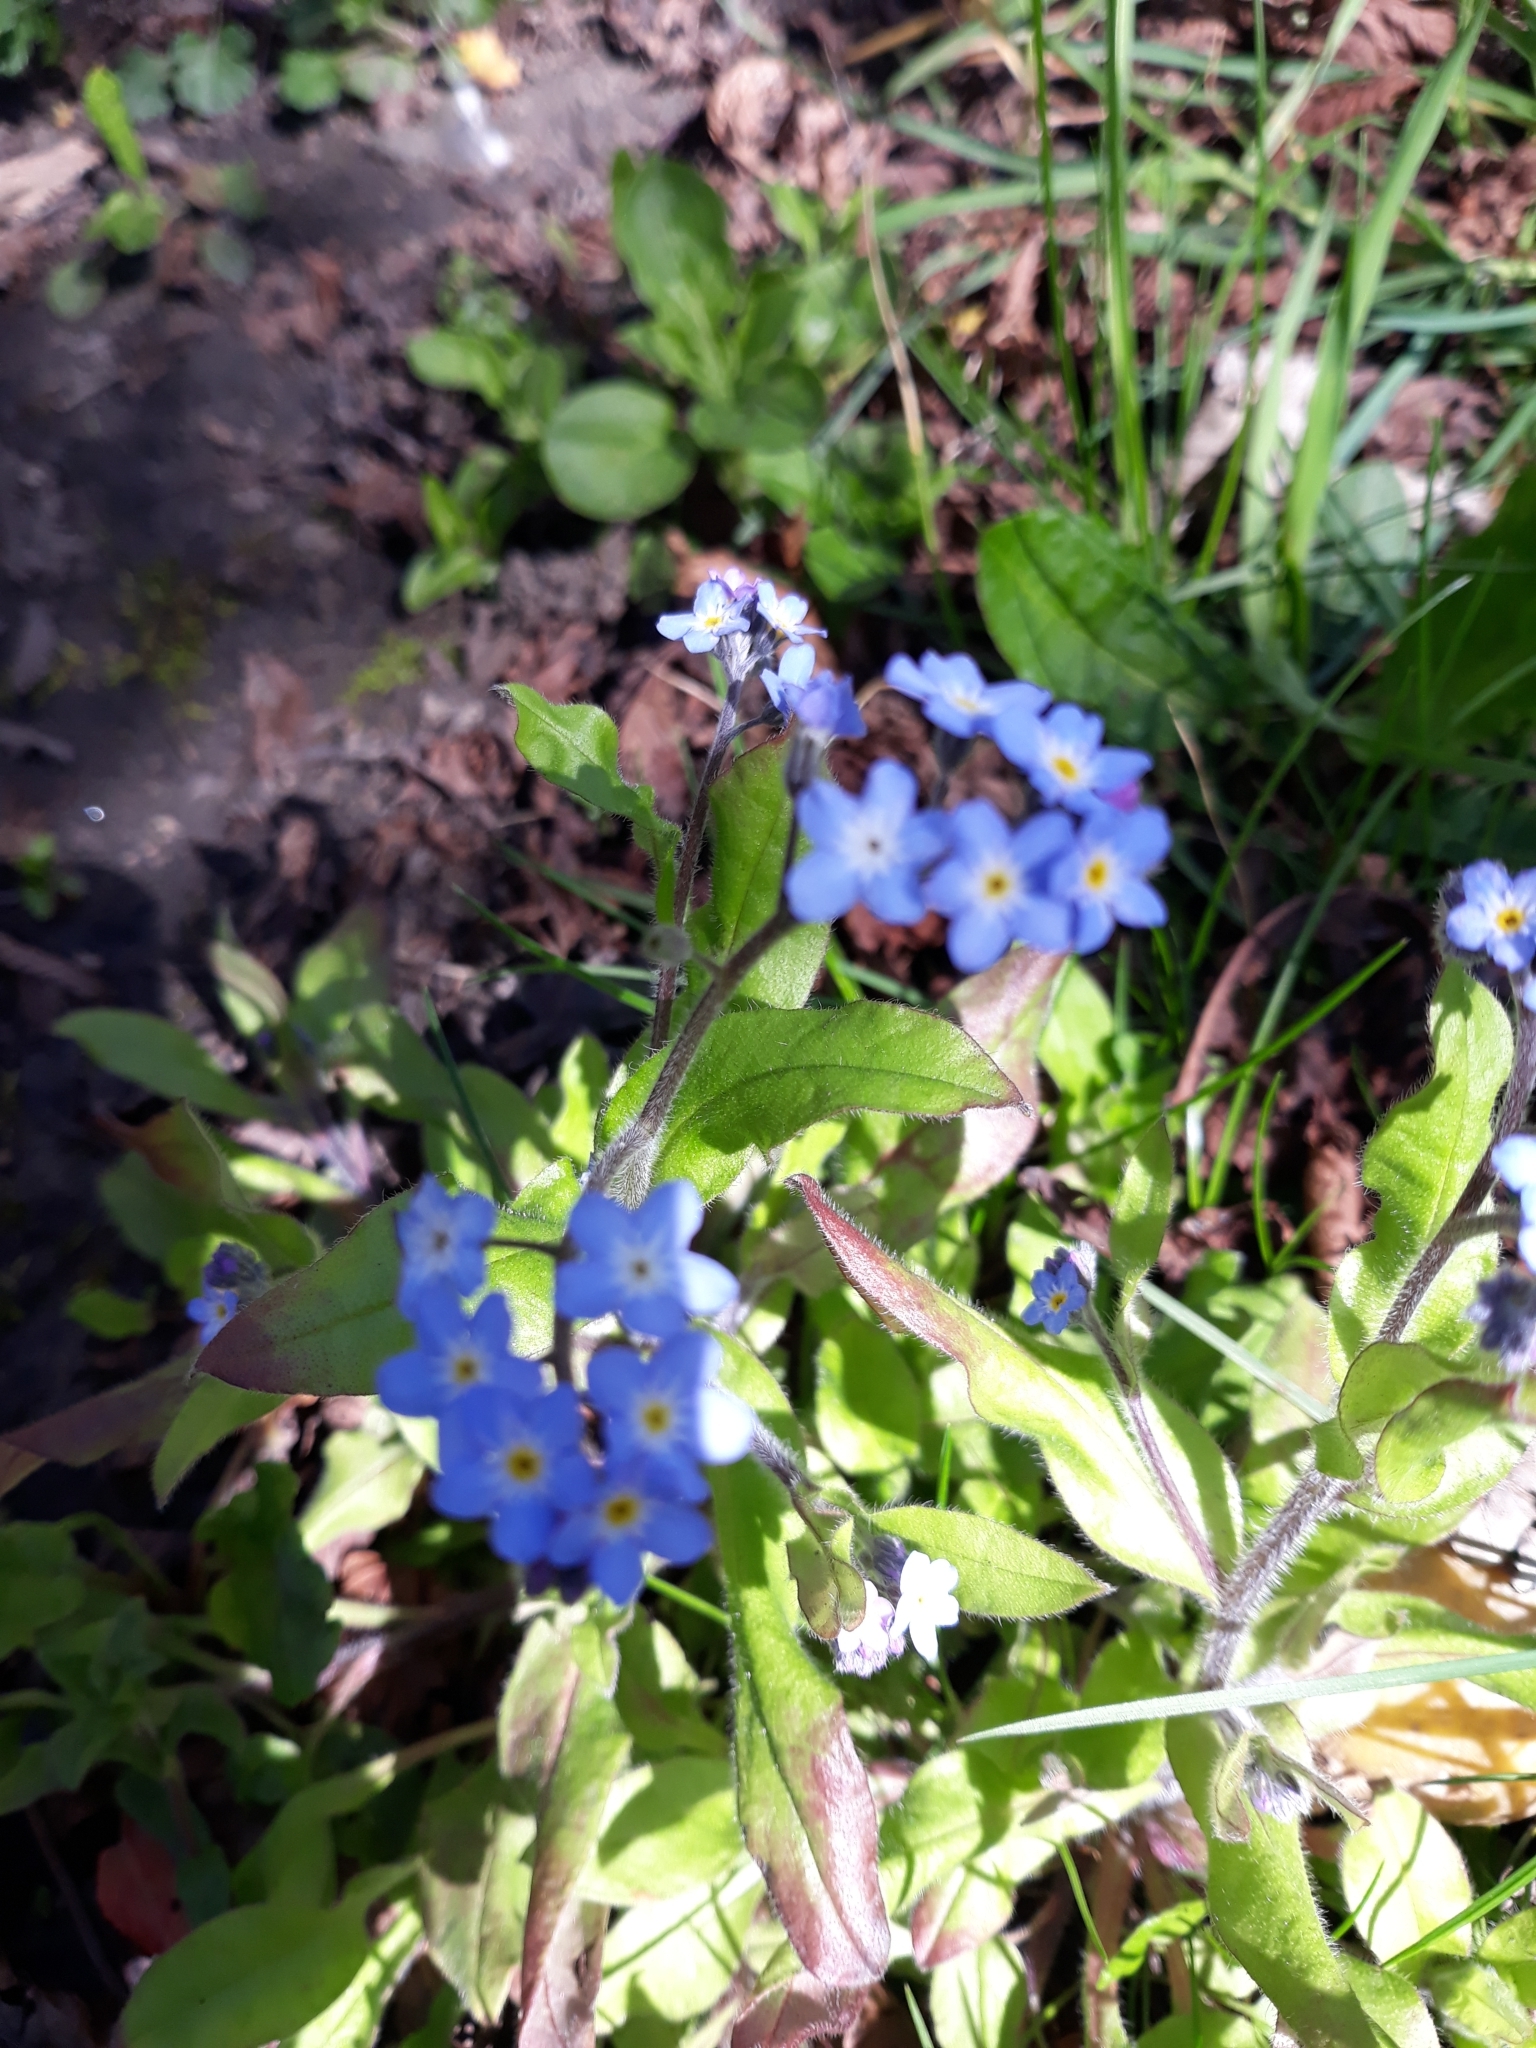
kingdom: Plantae
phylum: Tracheophyta
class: Magnoliopsida
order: Boraginales
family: Boraginaceae
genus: Myosotis
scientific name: Myosotis sylvatica
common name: Wood forget-me-not
